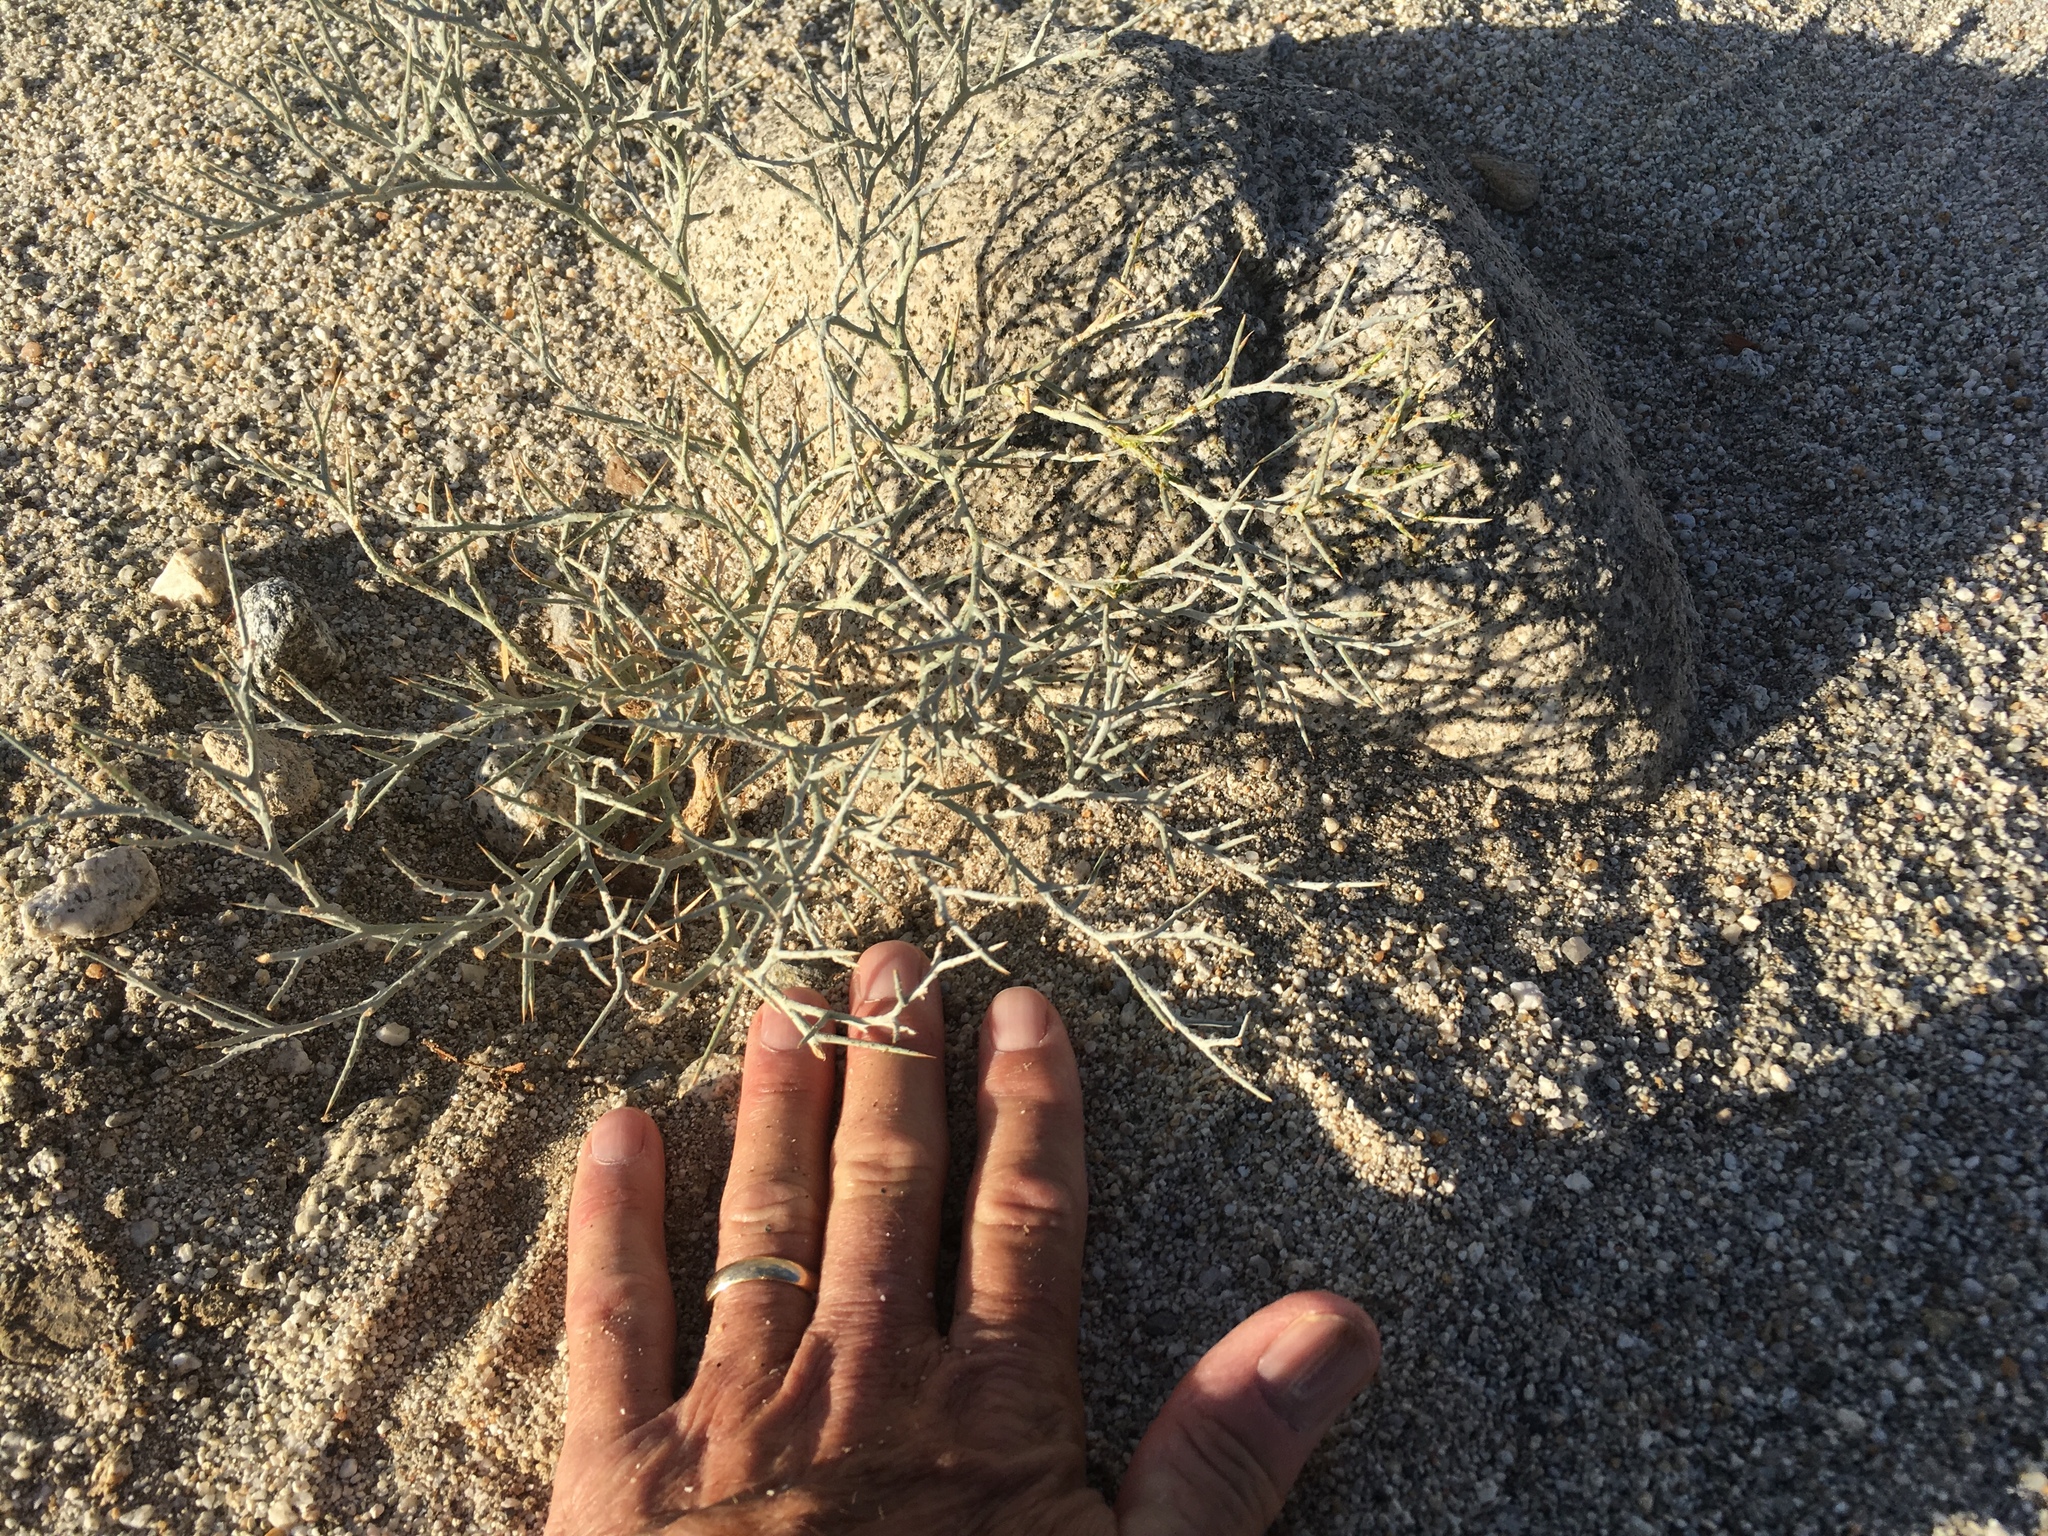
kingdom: Plantae
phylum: Tracheophyta
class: Magnoliopsida
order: Fabales
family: Fabaceae
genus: Psorothamnus
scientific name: Psorothamnus spinosus
